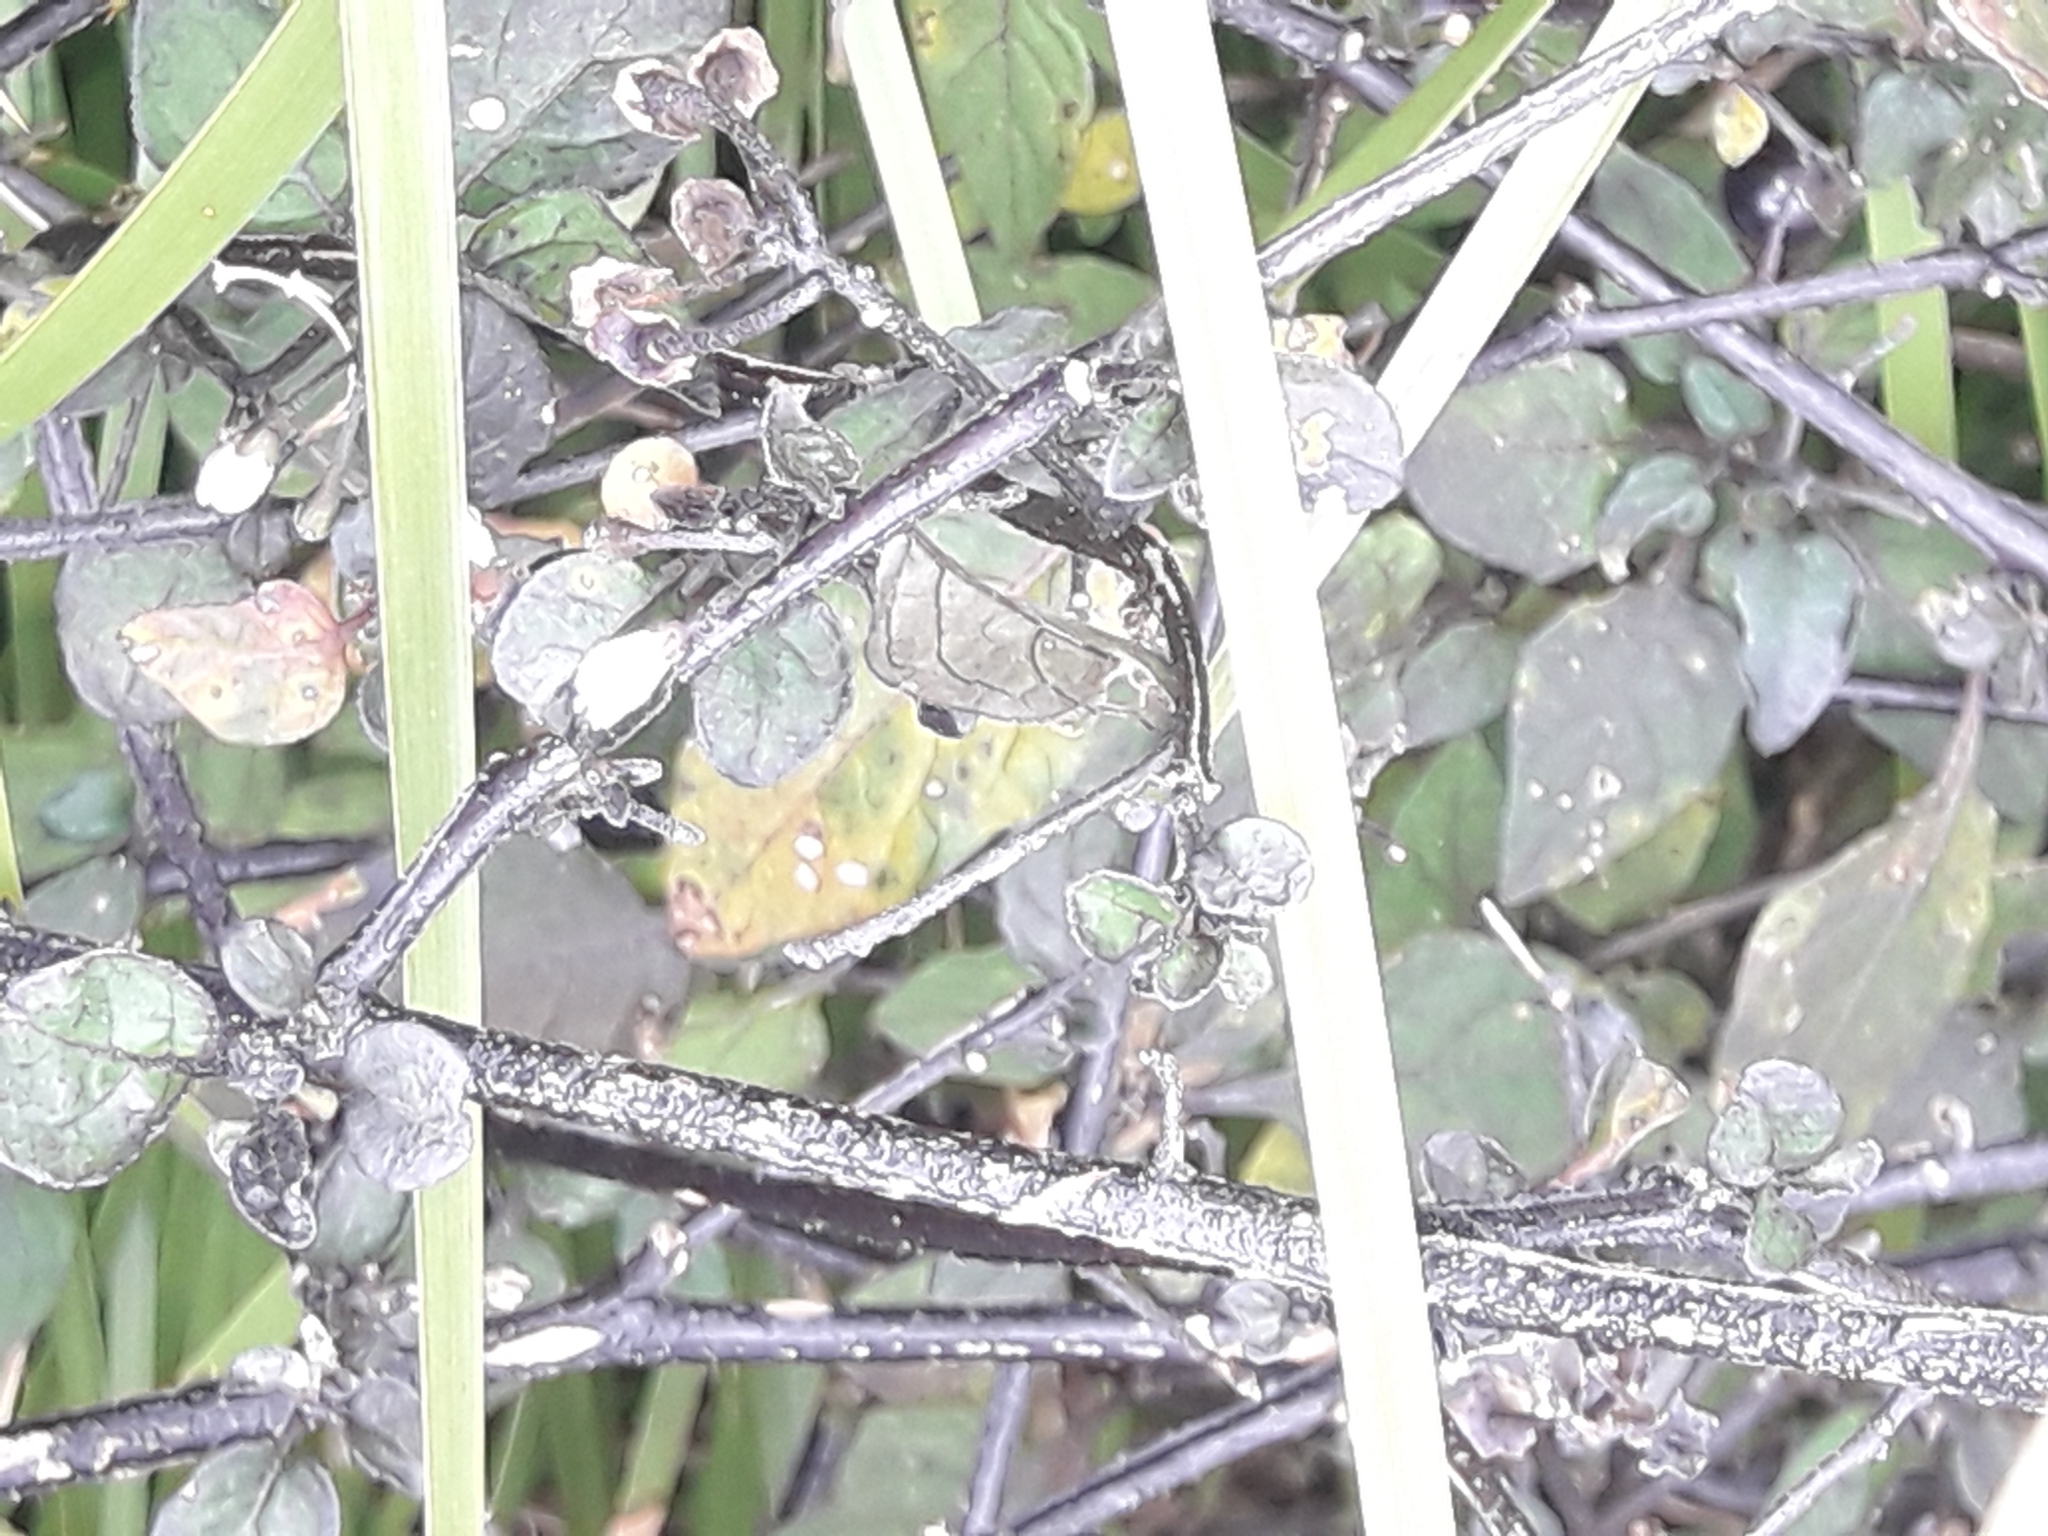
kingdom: Plantae
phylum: Tracheophyta
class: Magnoliopsida
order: Solanales
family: Solanaceae
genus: Solanum
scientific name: Solanum nigrum
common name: Black nightshade
